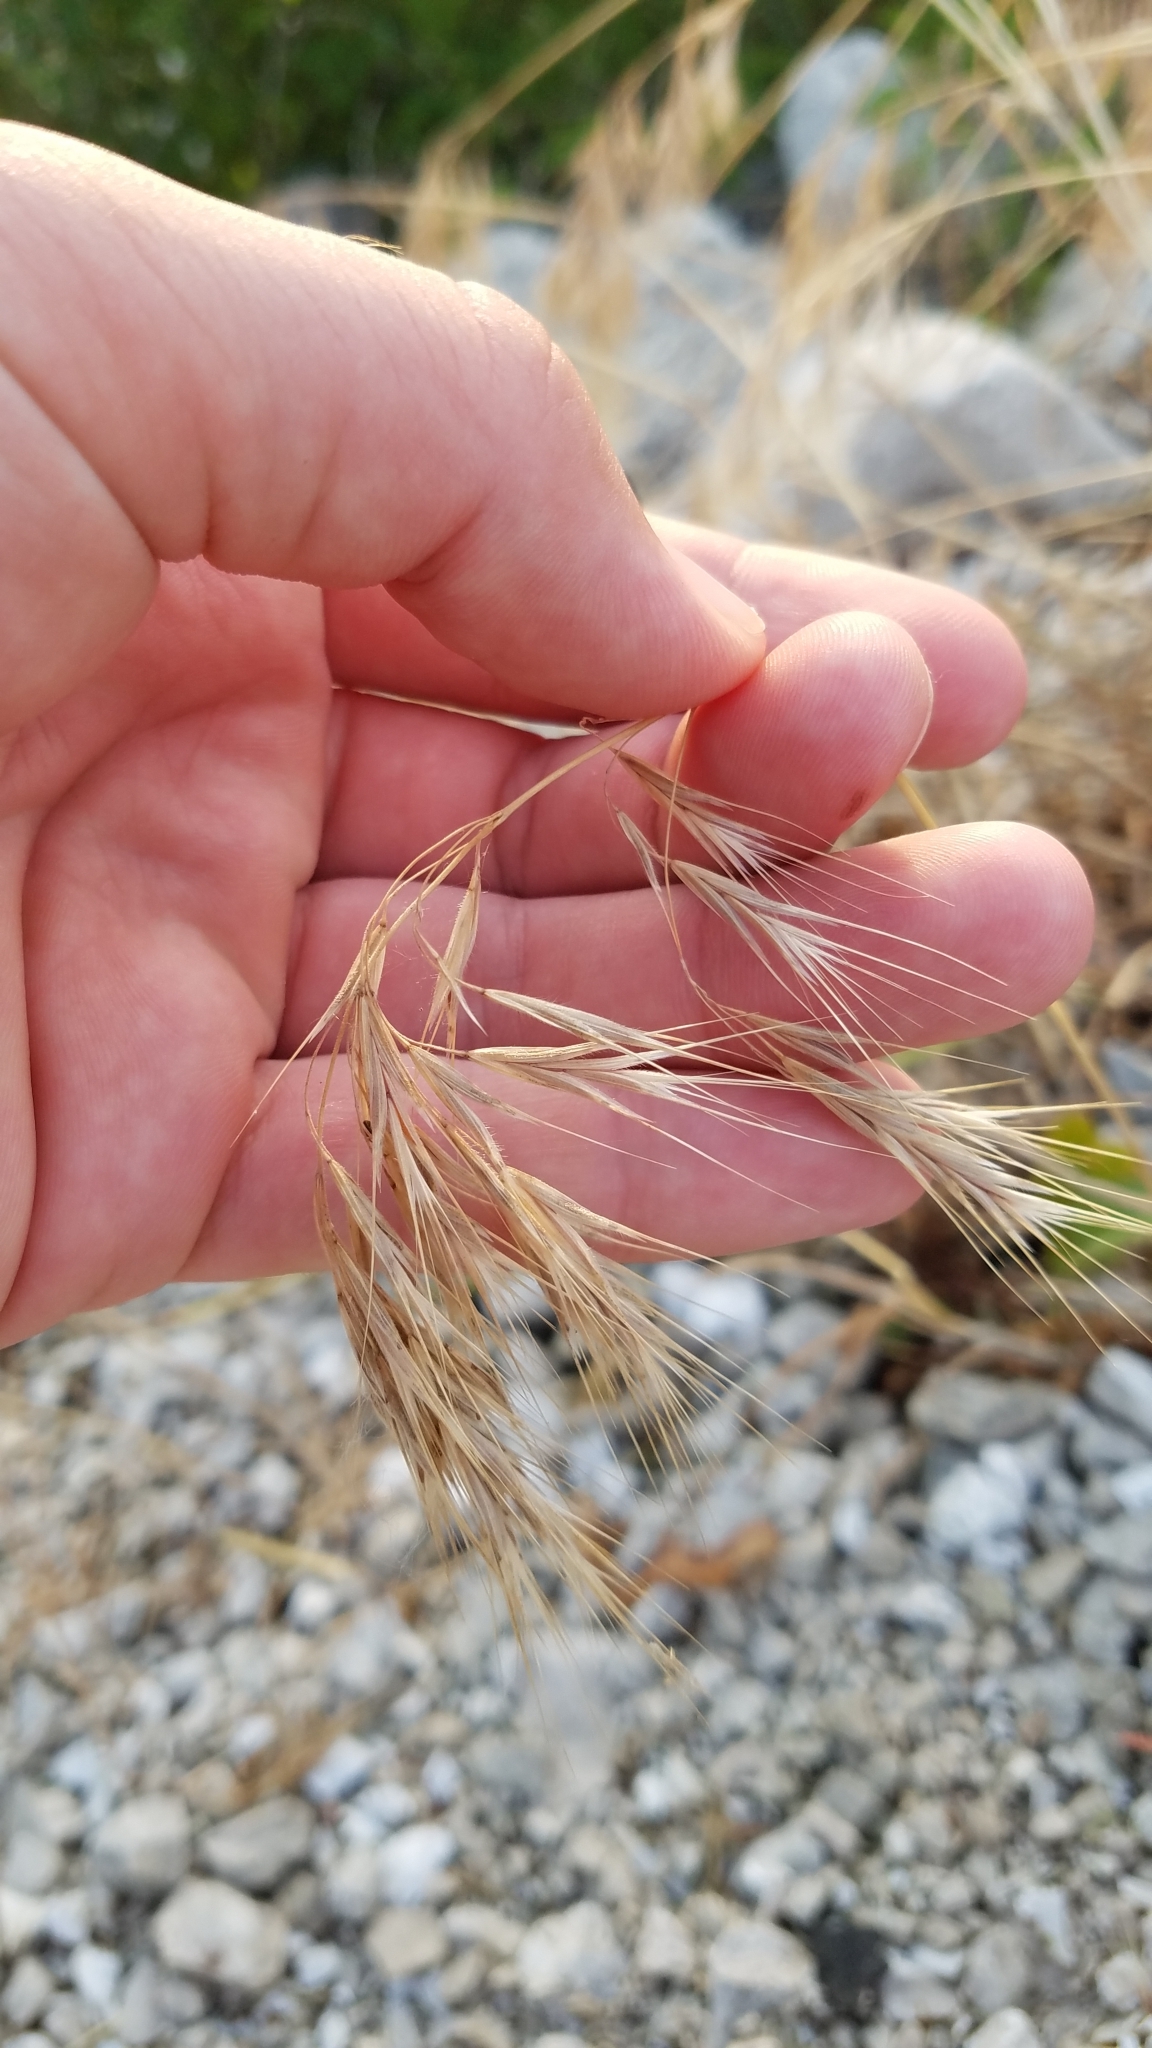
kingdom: Plantae
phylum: Tracheophyta
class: Liliopsida
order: Poales
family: Poaceae
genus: Bromus
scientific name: Bromus tectorum
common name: Cheatgrass
